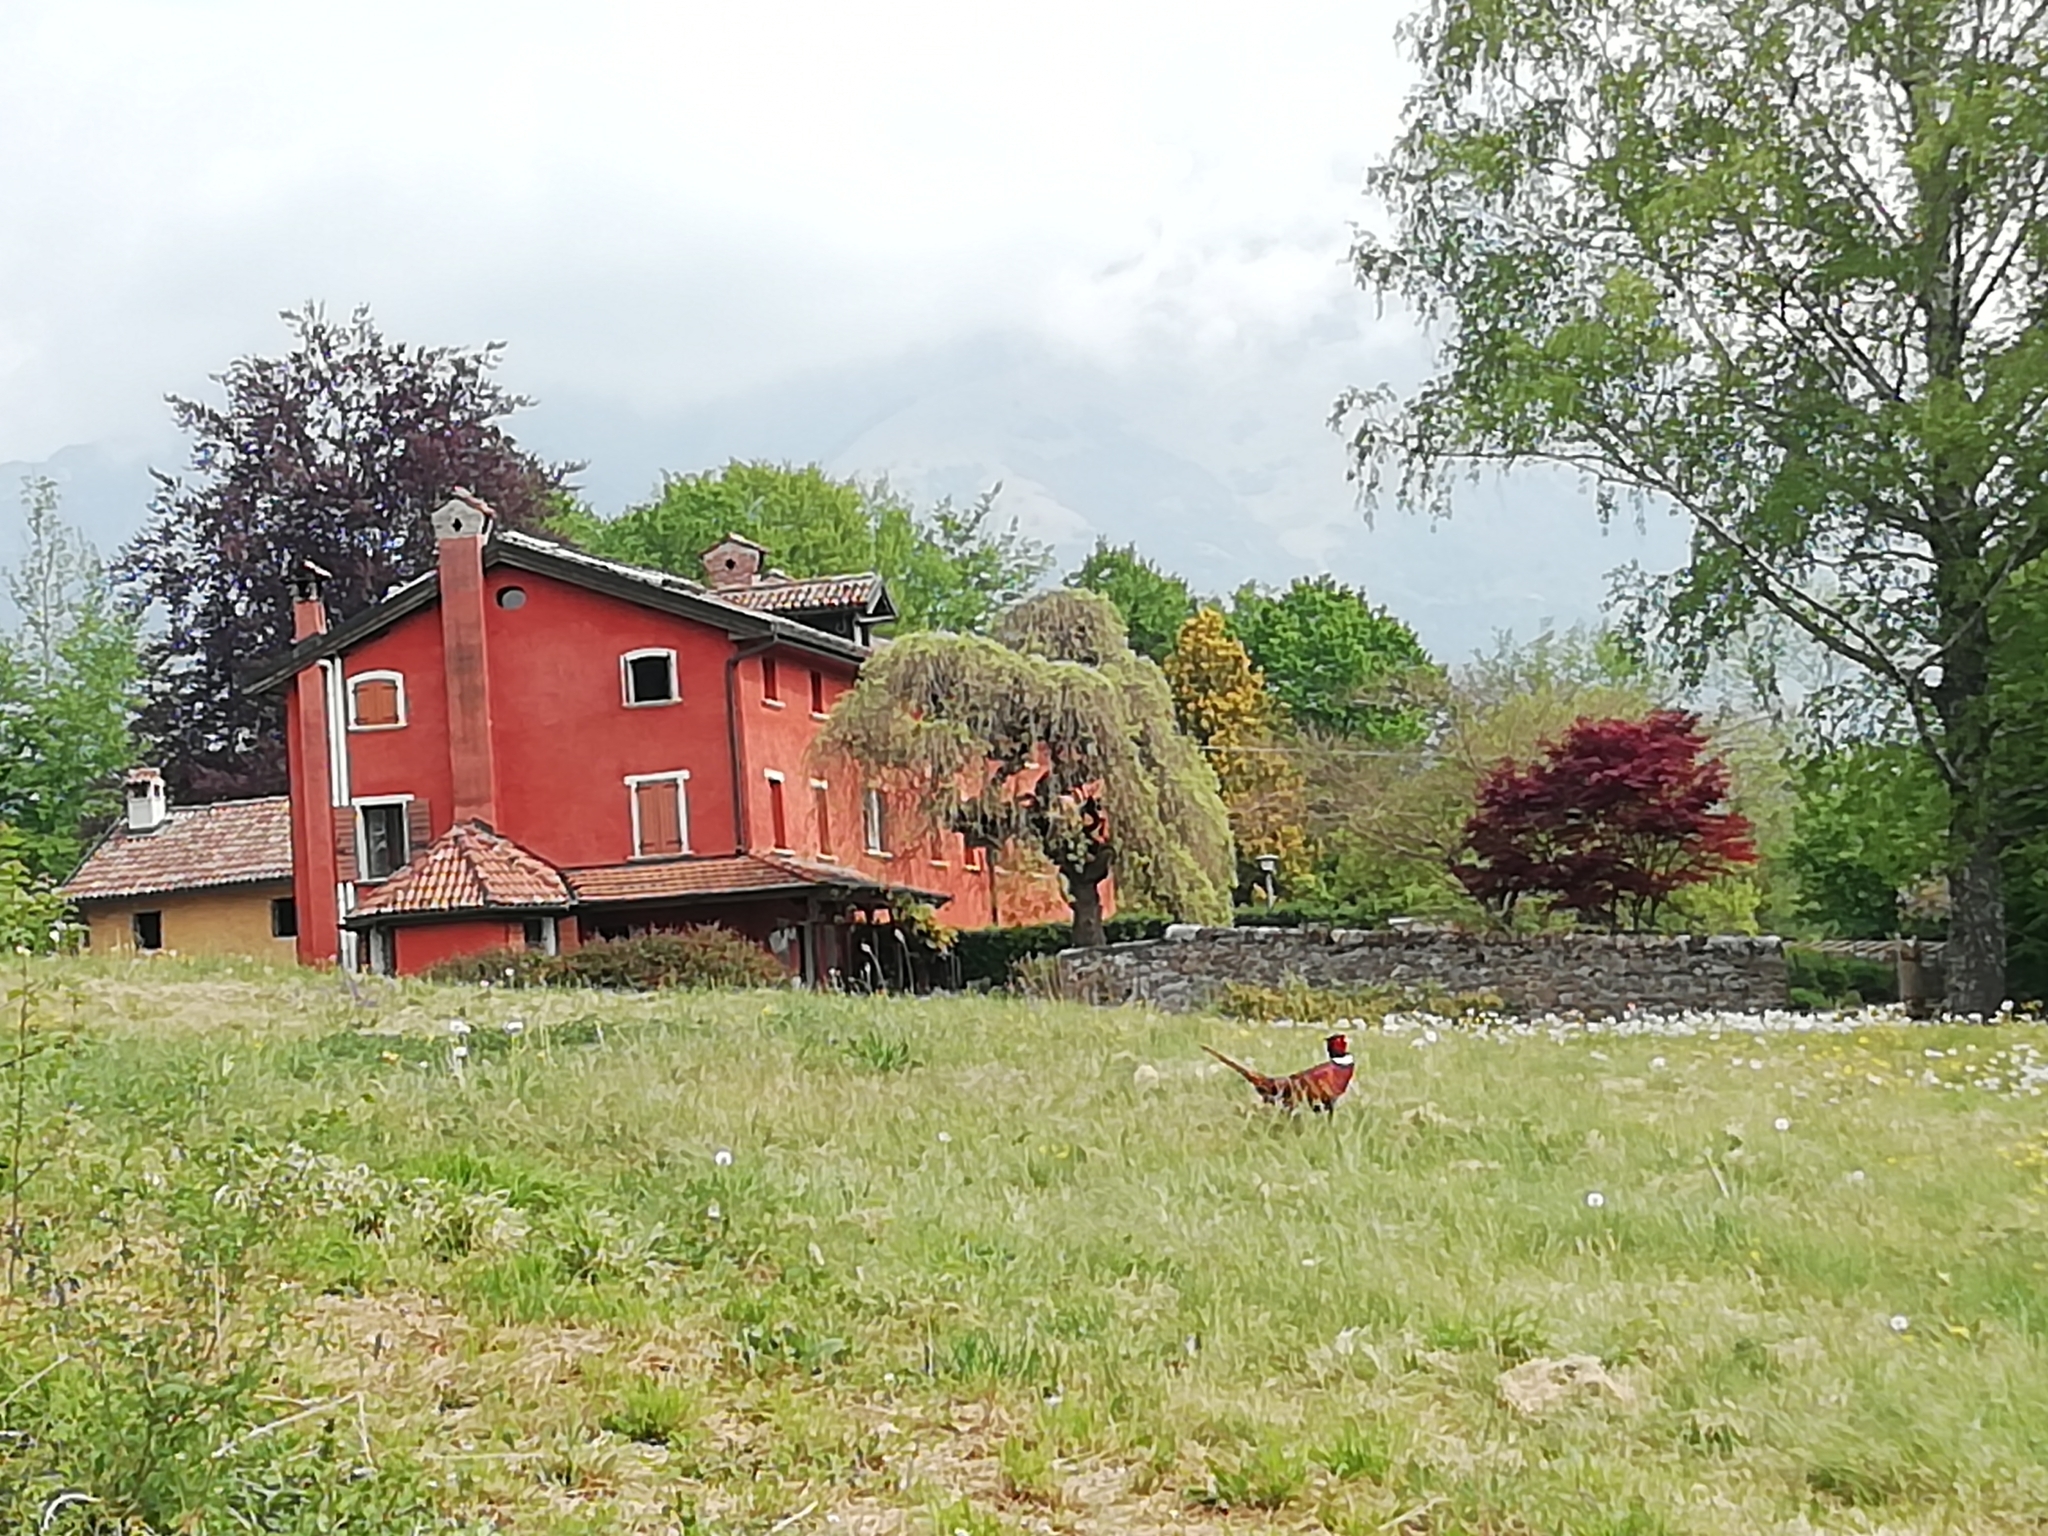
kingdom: Animalia
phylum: Chordata
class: Aves
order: Galliformes
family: Phasianidae
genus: Phasianus
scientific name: Phasianus colchicus
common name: Common pheasant
